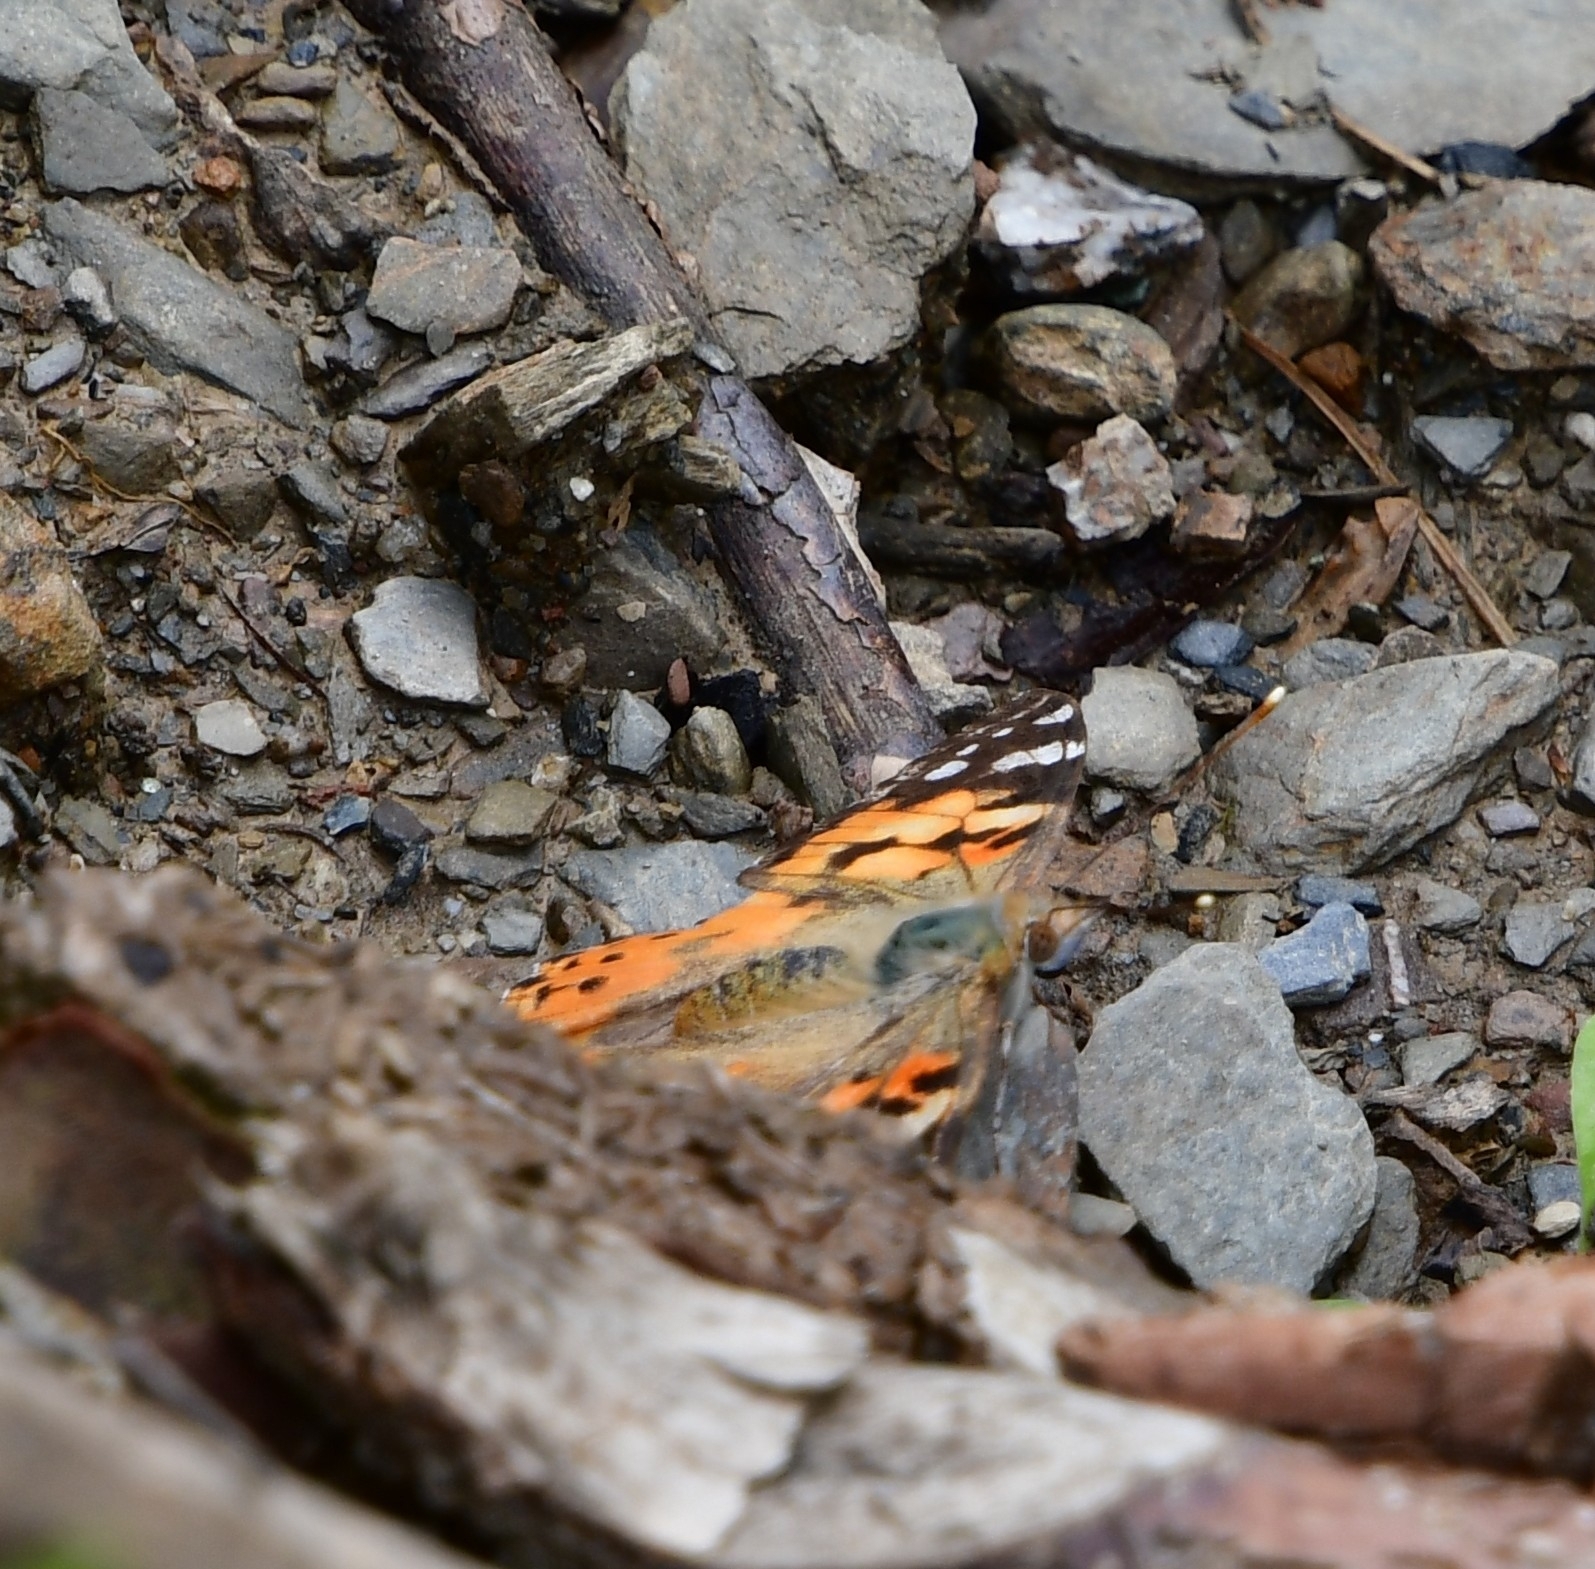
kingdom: Animalia
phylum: Arthropoda
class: Insecta
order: Lepidoptera
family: Nymphalidae
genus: Vanessa
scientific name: Vanessa cardui
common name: Painted lady
